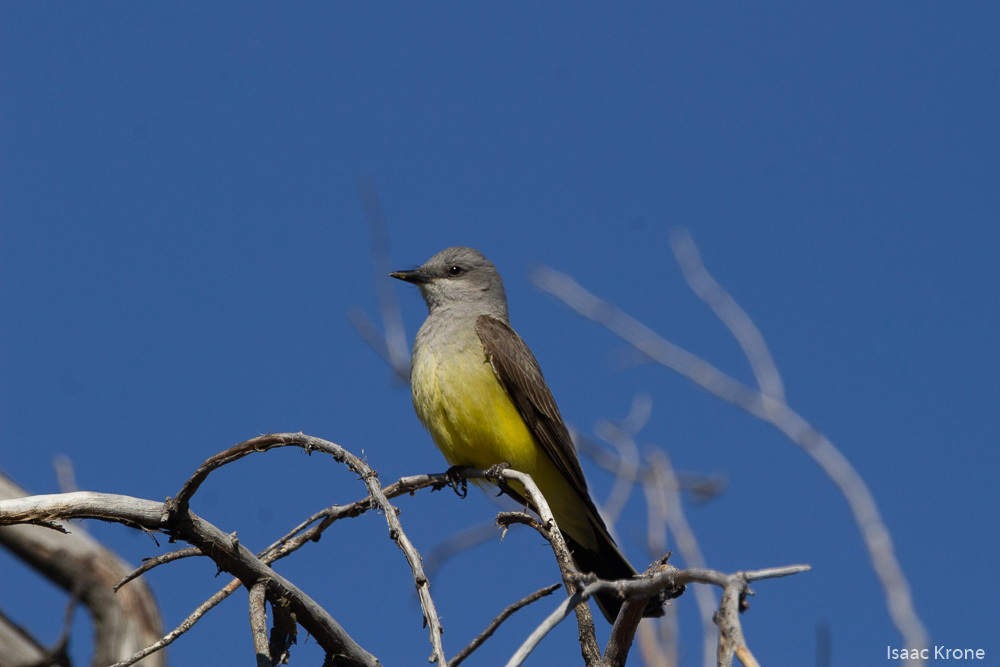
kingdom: Animalia
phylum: Chordata
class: Aves
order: Passeriformes
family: Tyrannidae
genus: Tyrannus
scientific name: Tyrannus verticalis
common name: Western kingbird
